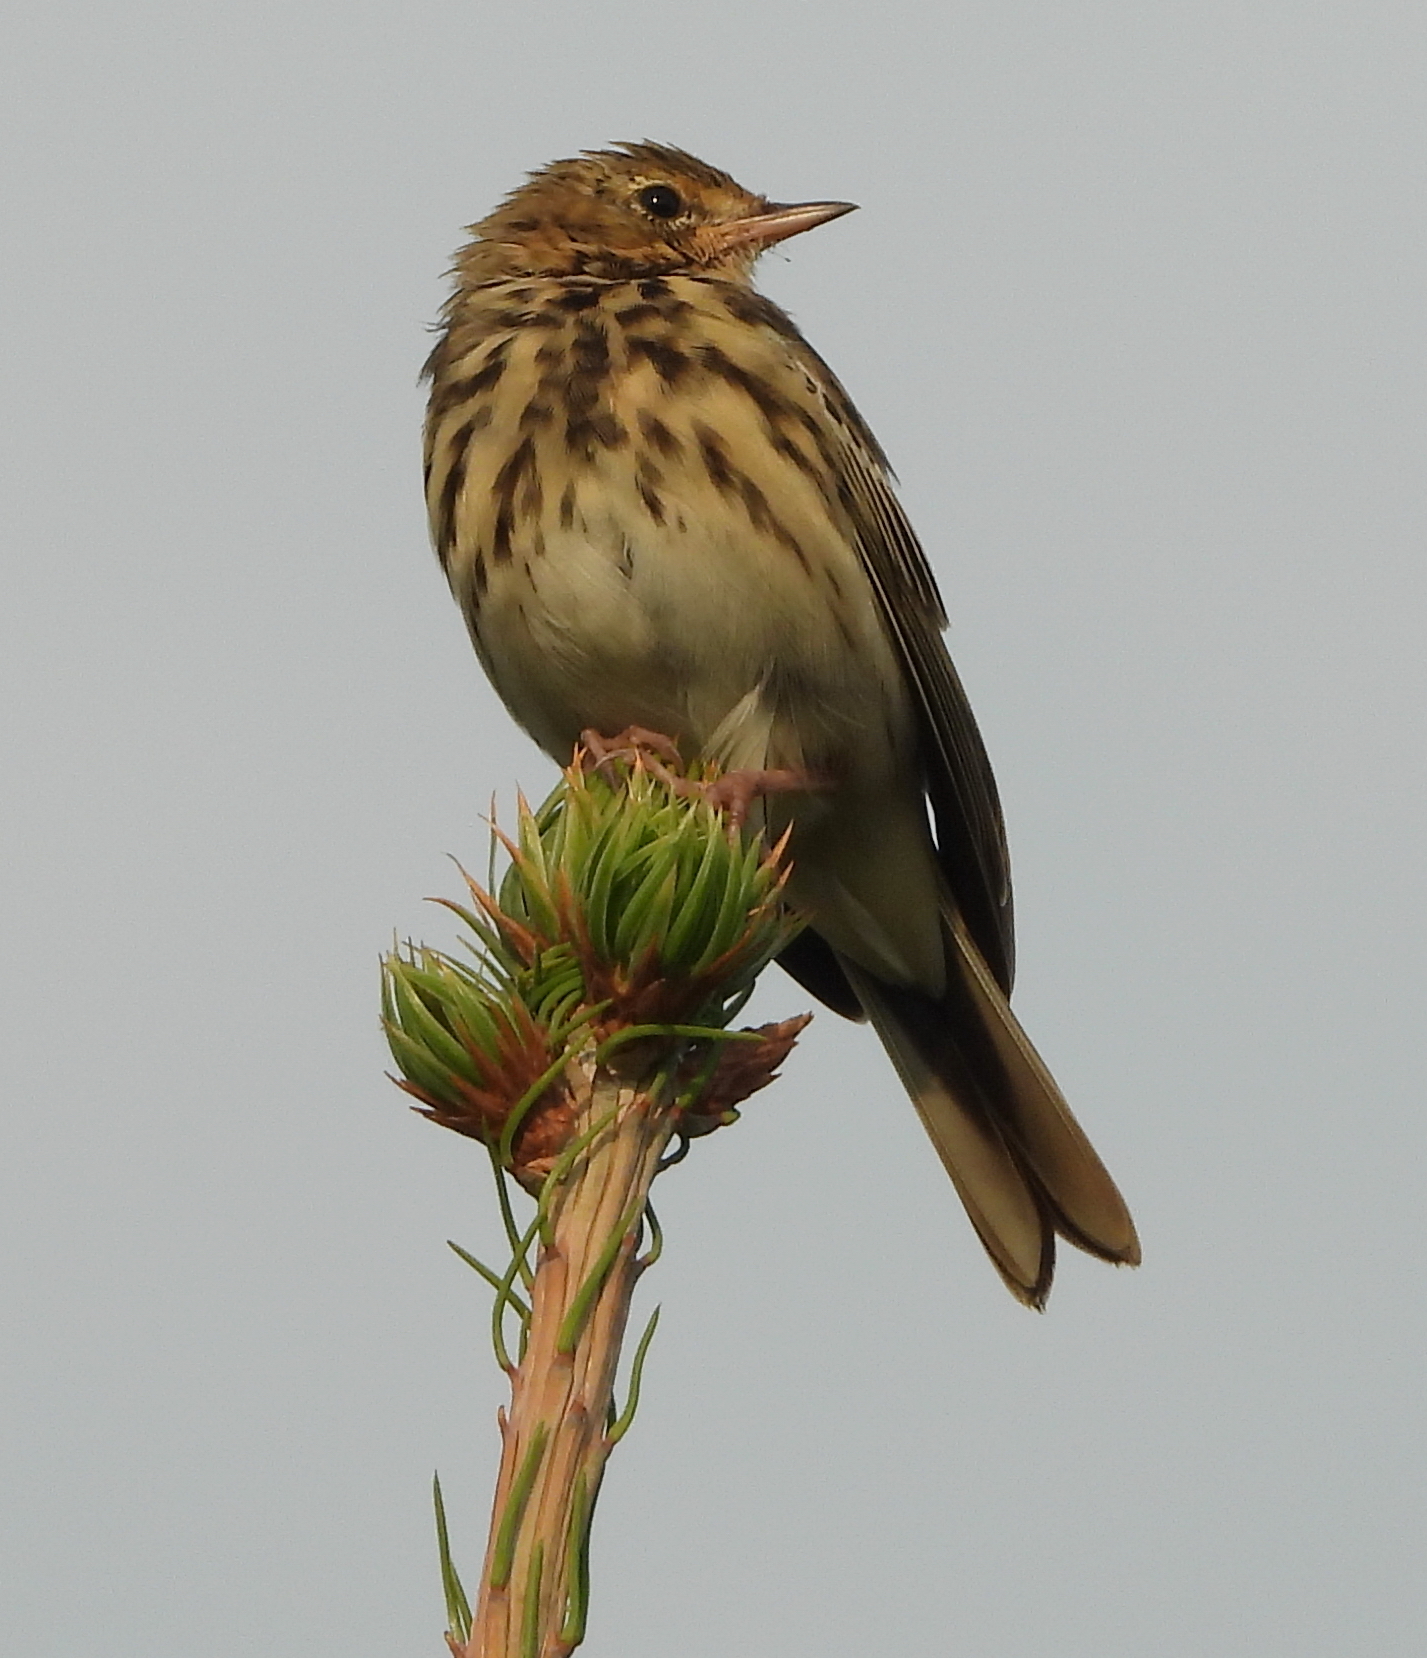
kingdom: Animalia
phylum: Chordata
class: Aves
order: Passeriformes
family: Motacillidae
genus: Anthus
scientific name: Anthus trivialis
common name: Tree pipit
